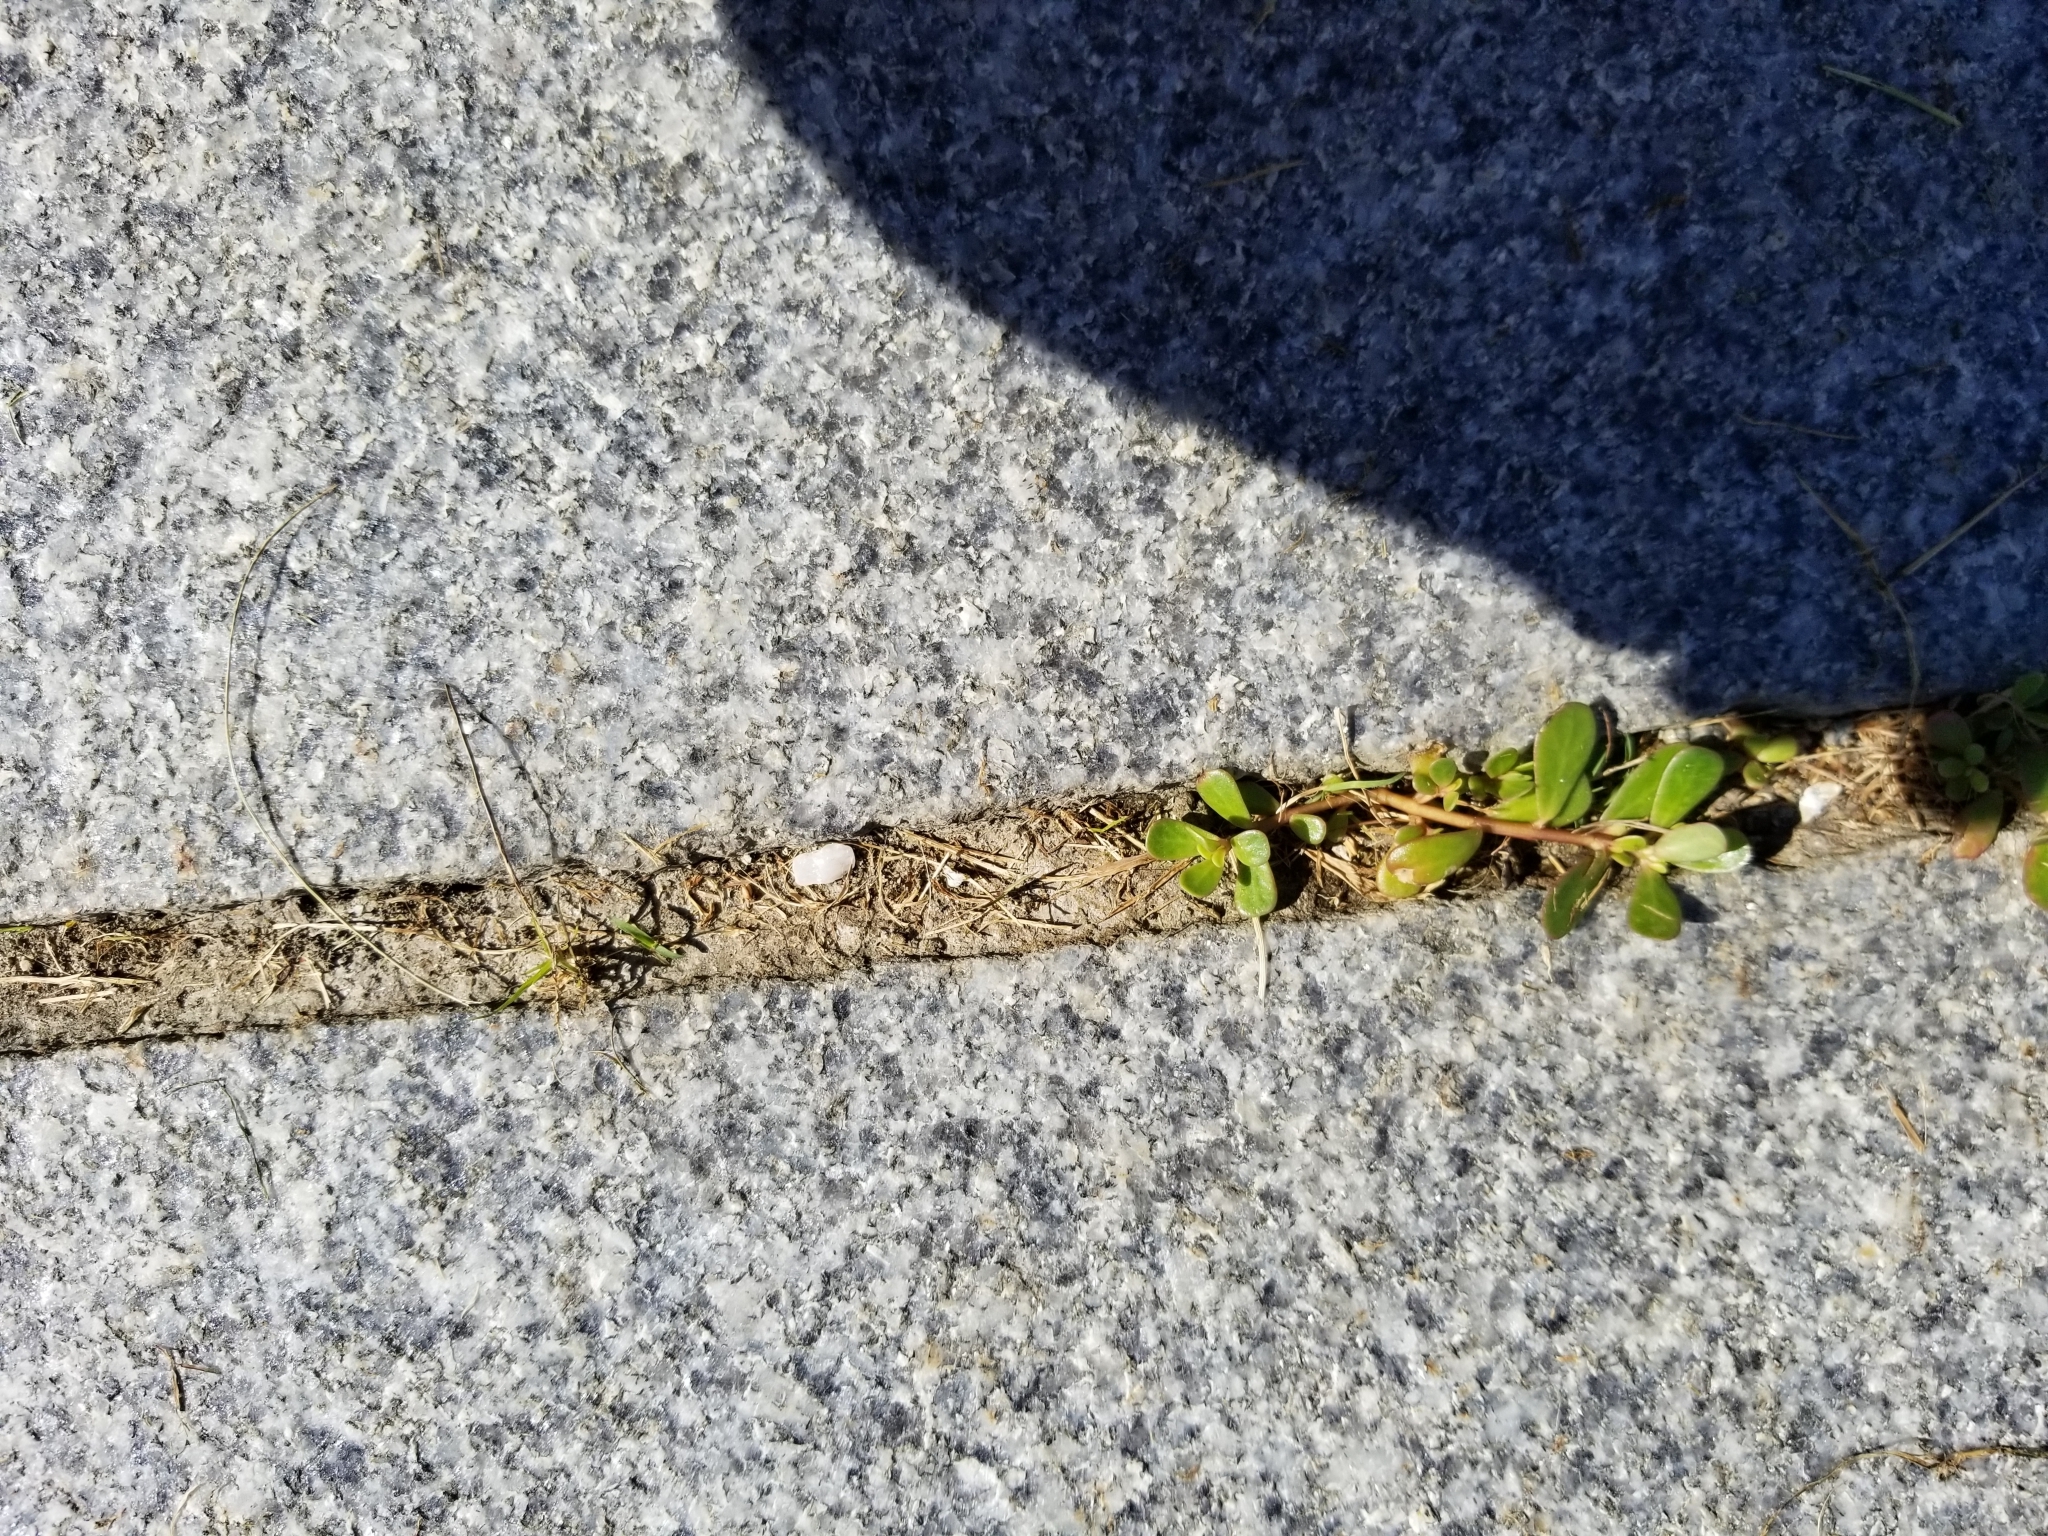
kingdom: Plantae
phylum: Tracheophyta
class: Magnoliopsida
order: Caryophyllales
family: Portulacaceae
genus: Portulaca
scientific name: Portulaca oleracea
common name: Common purslane
